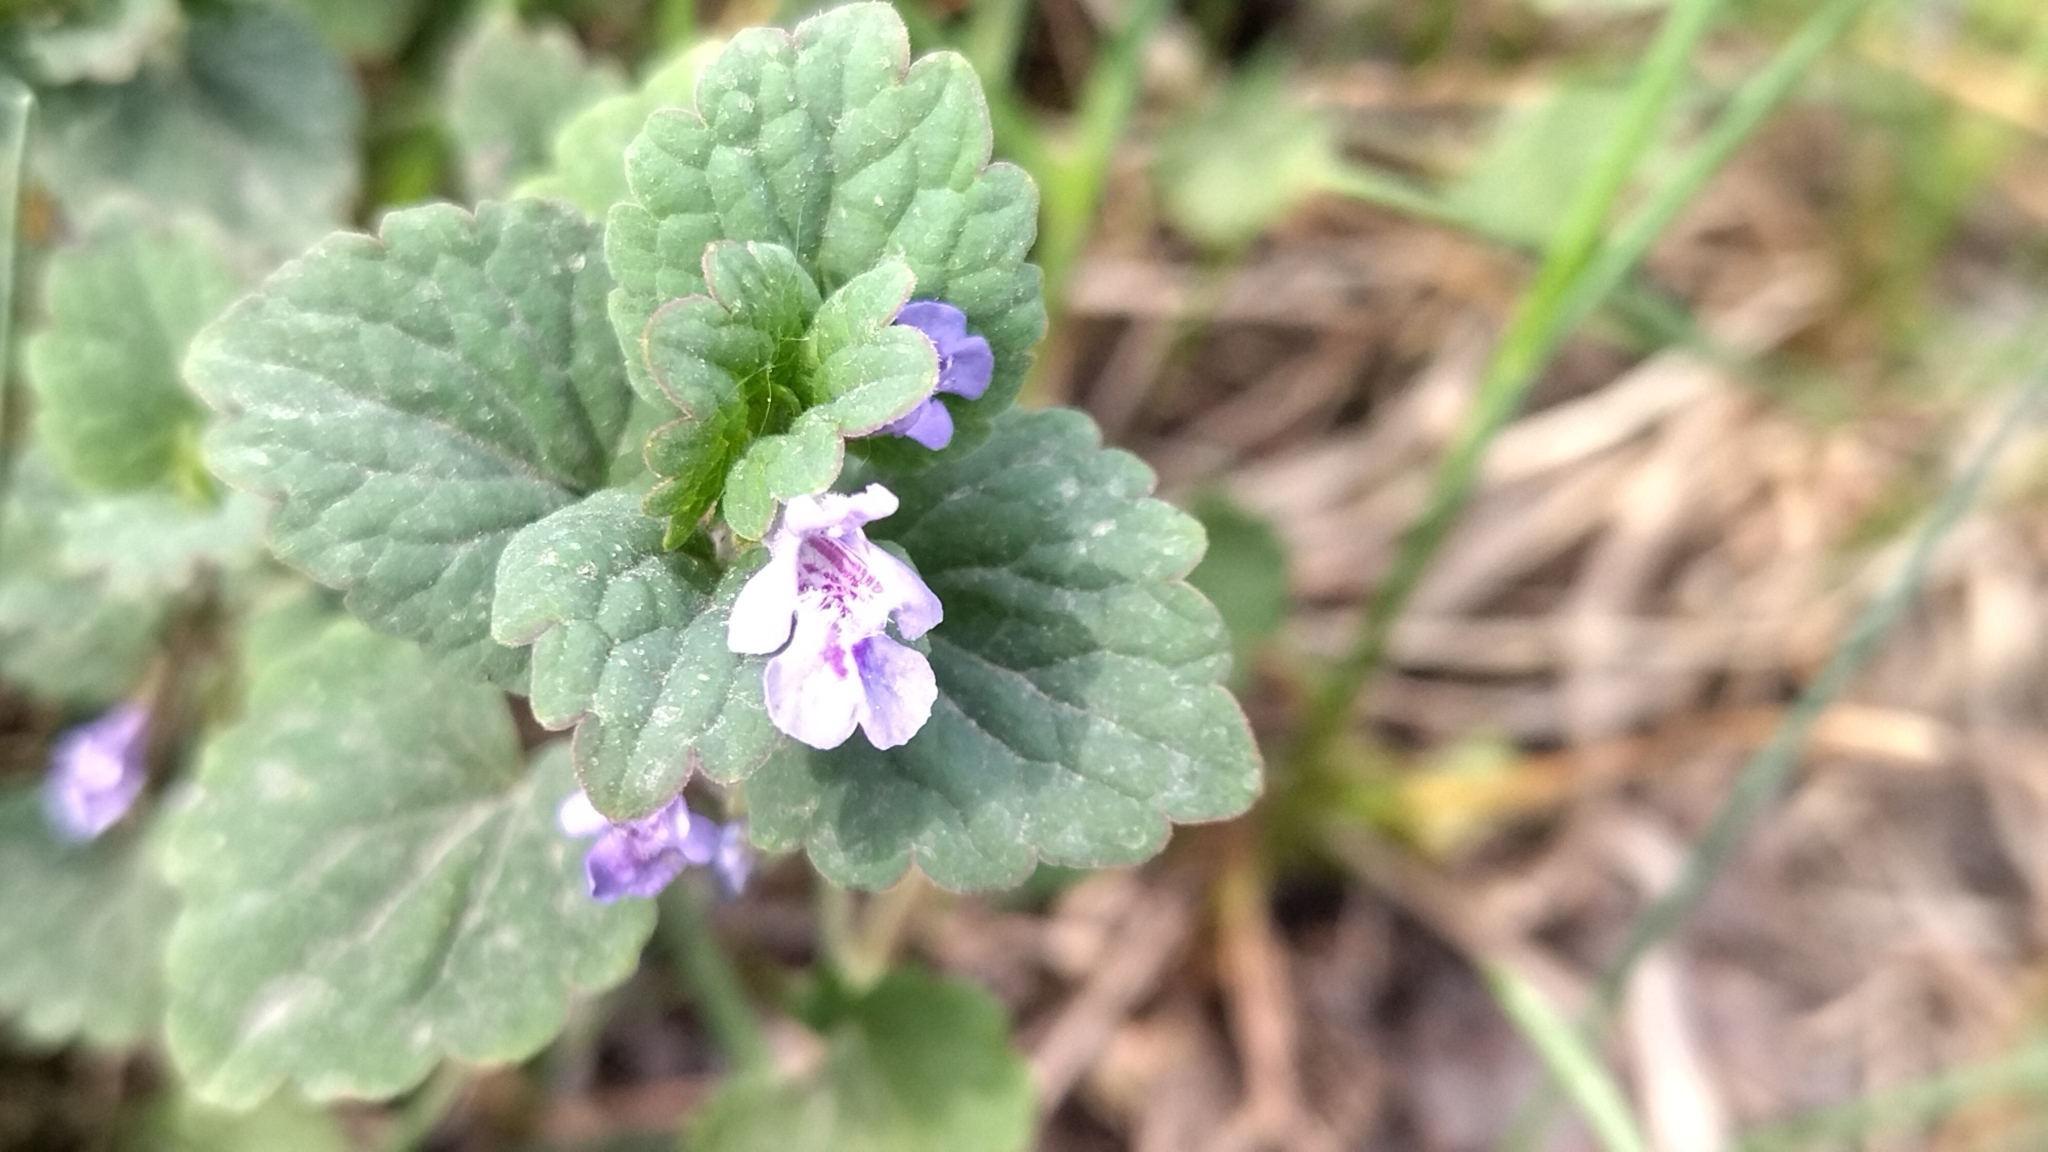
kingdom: Plantae
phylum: Tracheophyta
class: Magnoliopsida
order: Lamiales
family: Lamiaceae
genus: Glechoma
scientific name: Glechoma hederacea
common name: Ground ivy
